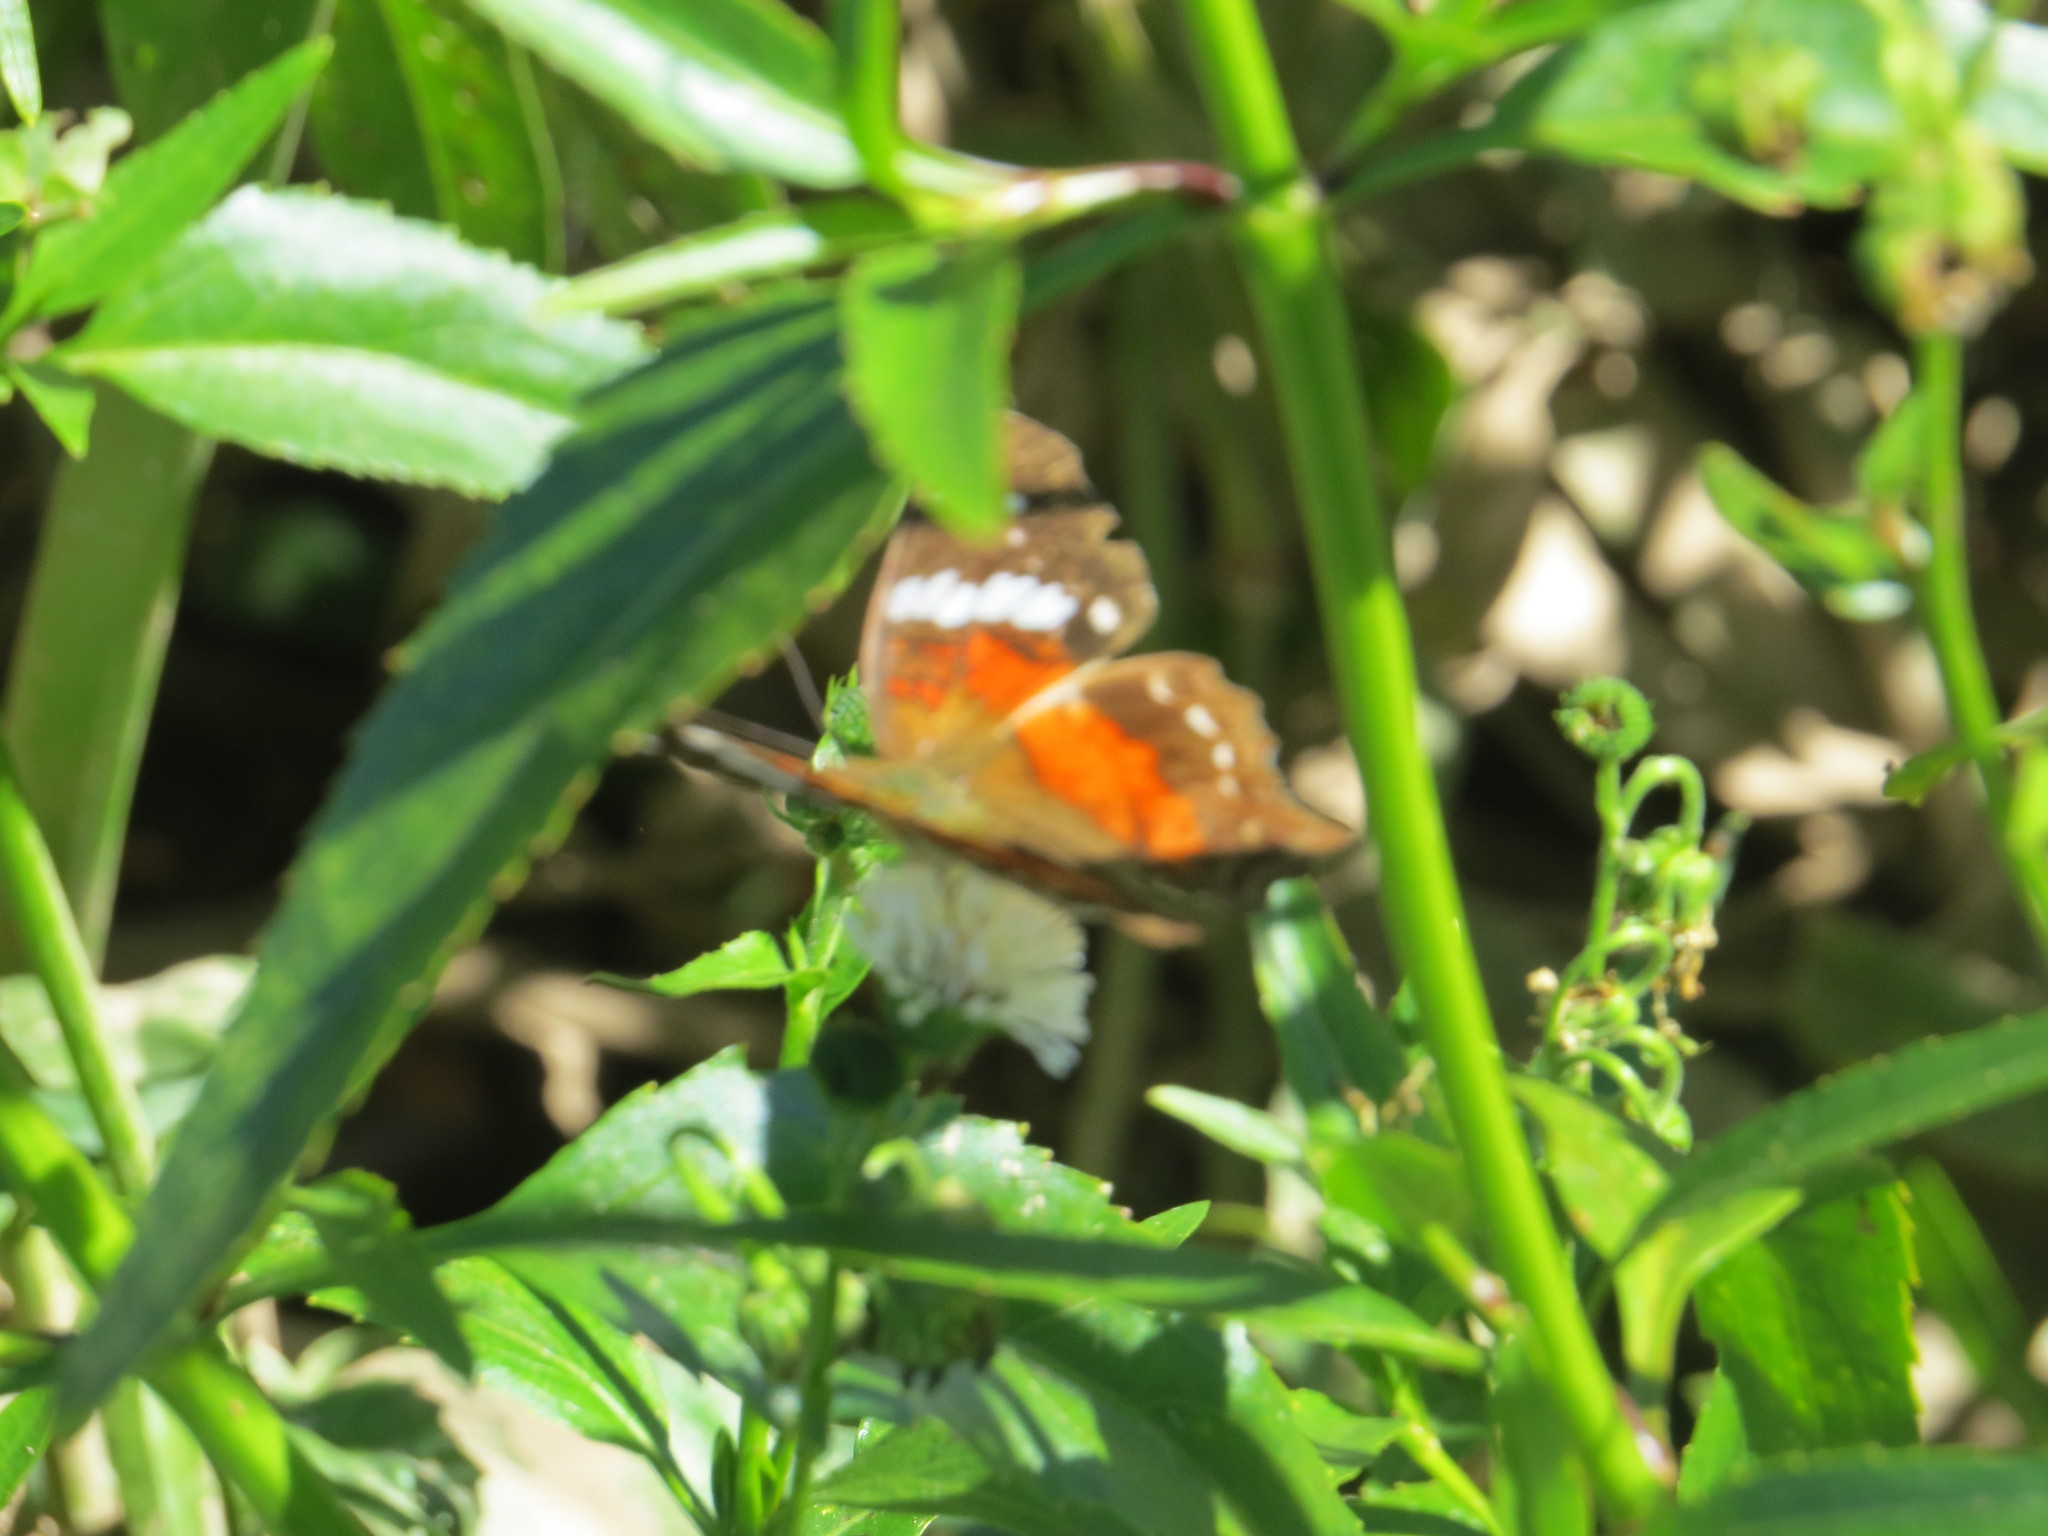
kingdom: Animalia
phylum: Arthropoda
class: Insecta
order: Lepidoptera
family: Nymphalidae
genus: Anartia
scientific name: Anartia amathea
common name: Red peacock
